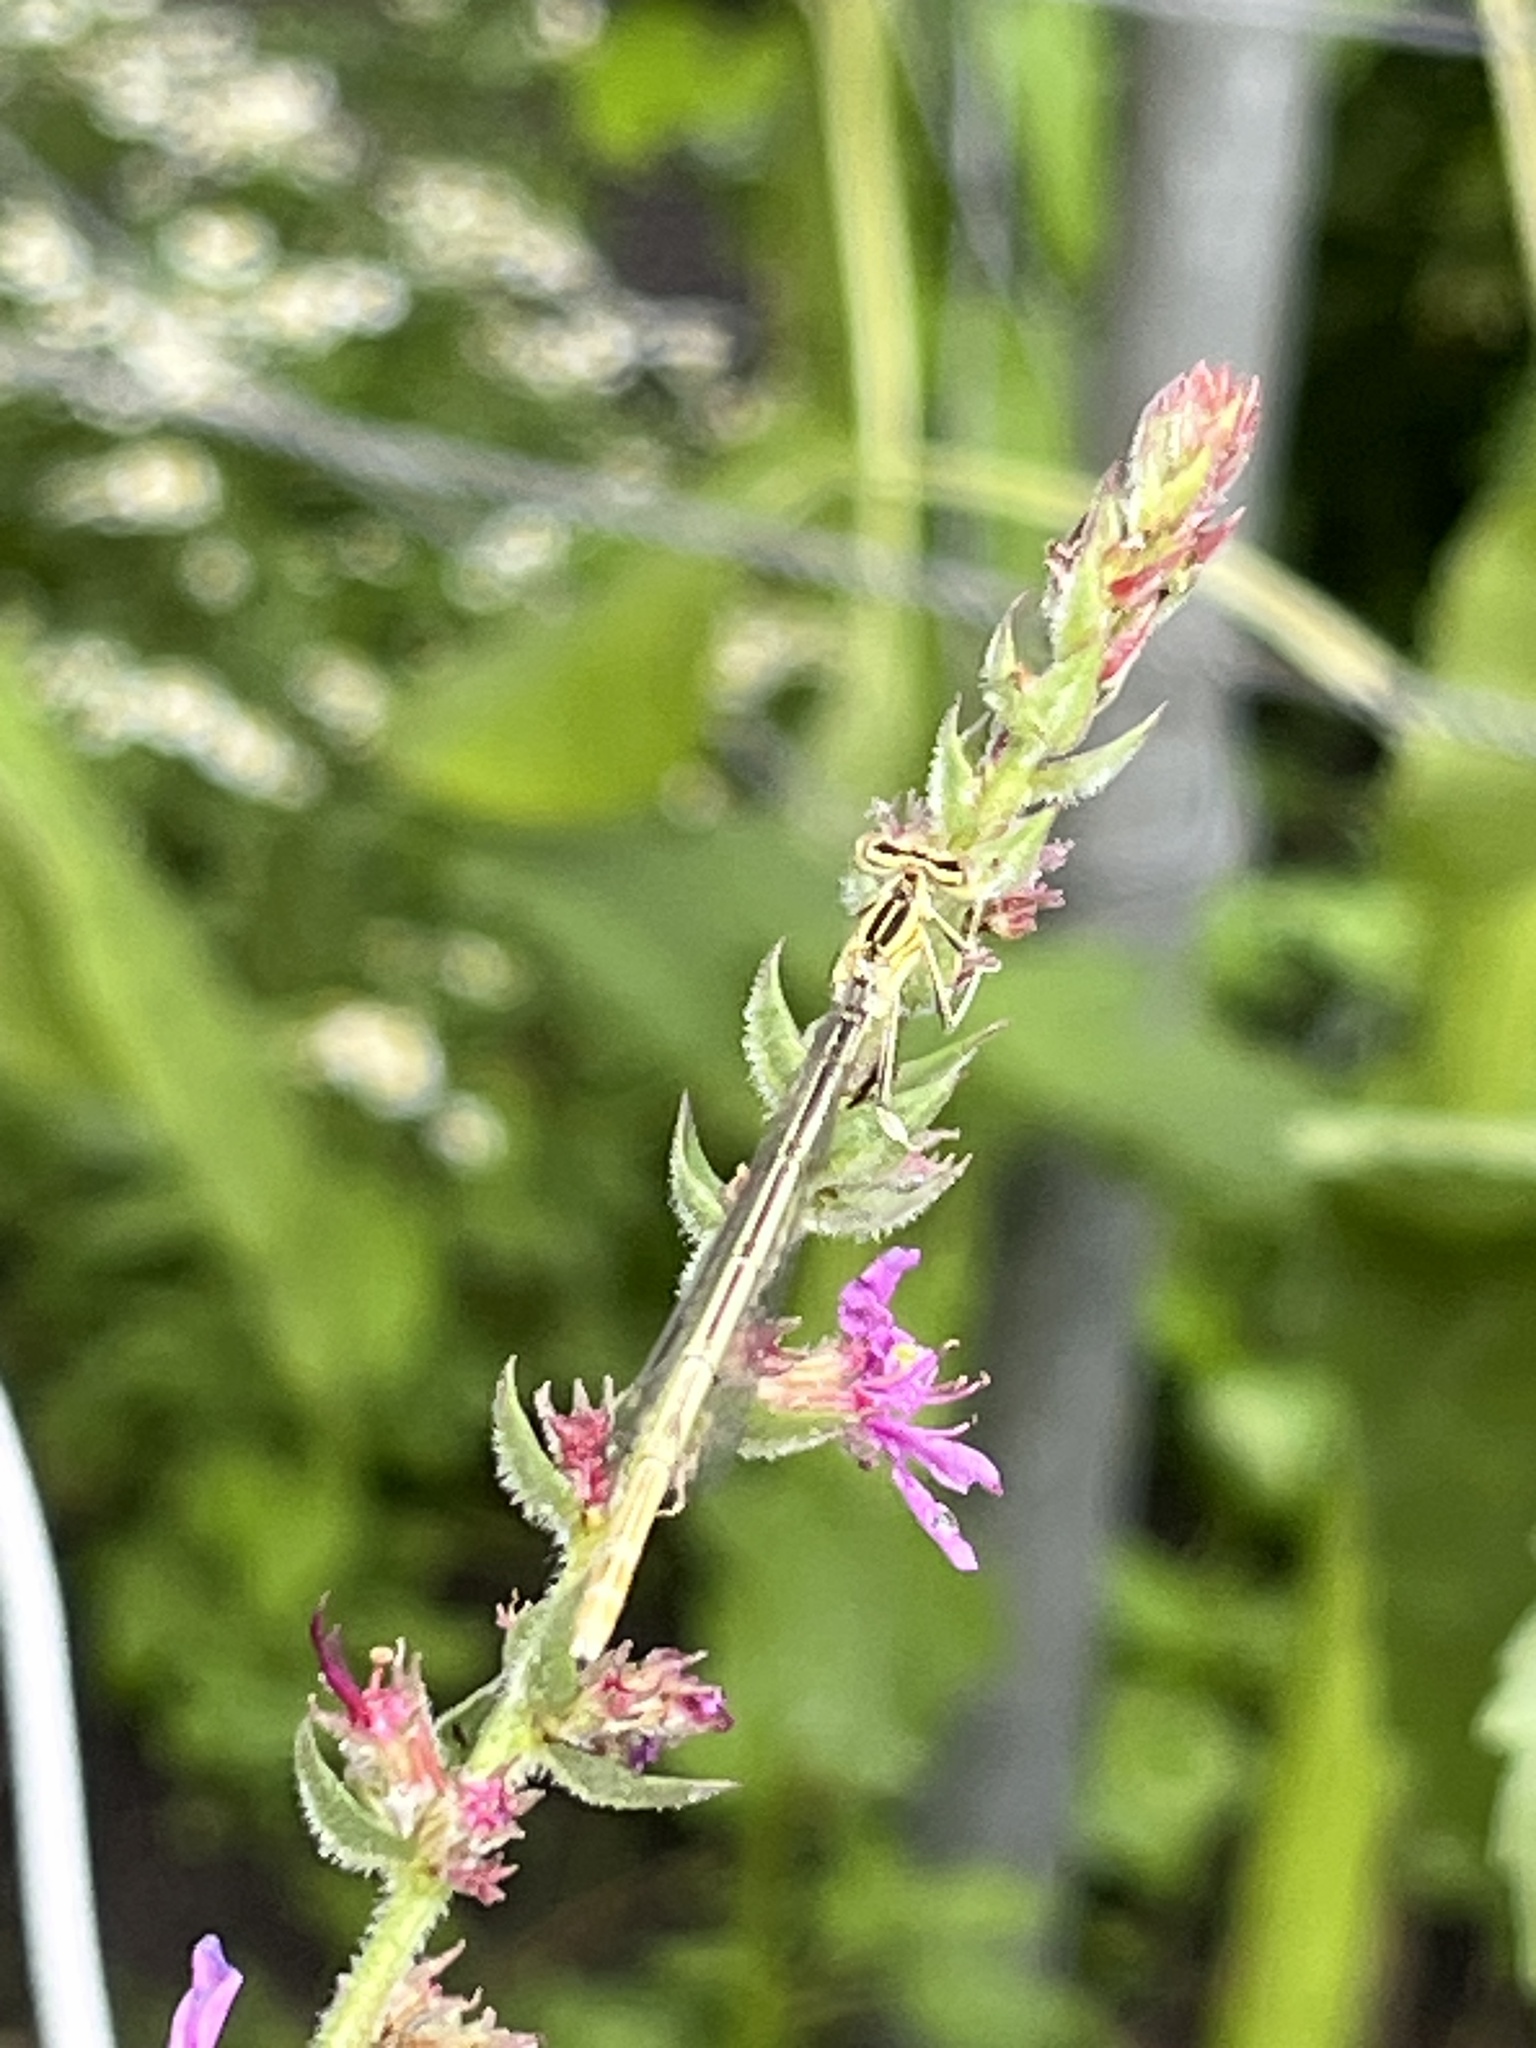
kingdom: Animalia
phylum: Arthropoda
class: Insecta
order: Odonata
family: Platycnemididae
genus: Platycnemis
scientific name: Platycnemis pennipes
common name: White-legged damselfly
